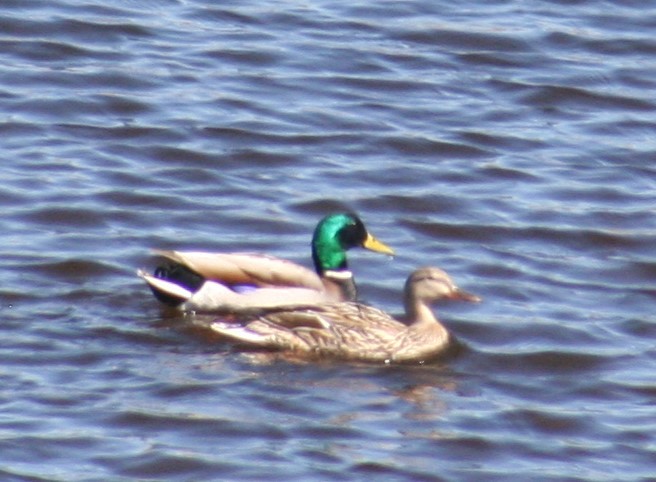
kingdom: Animalia
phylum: Chordata
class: Aves
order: Anseriformes
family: Anatidae
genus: Anas
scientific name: Anas platyrhynchos
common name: Mallard
